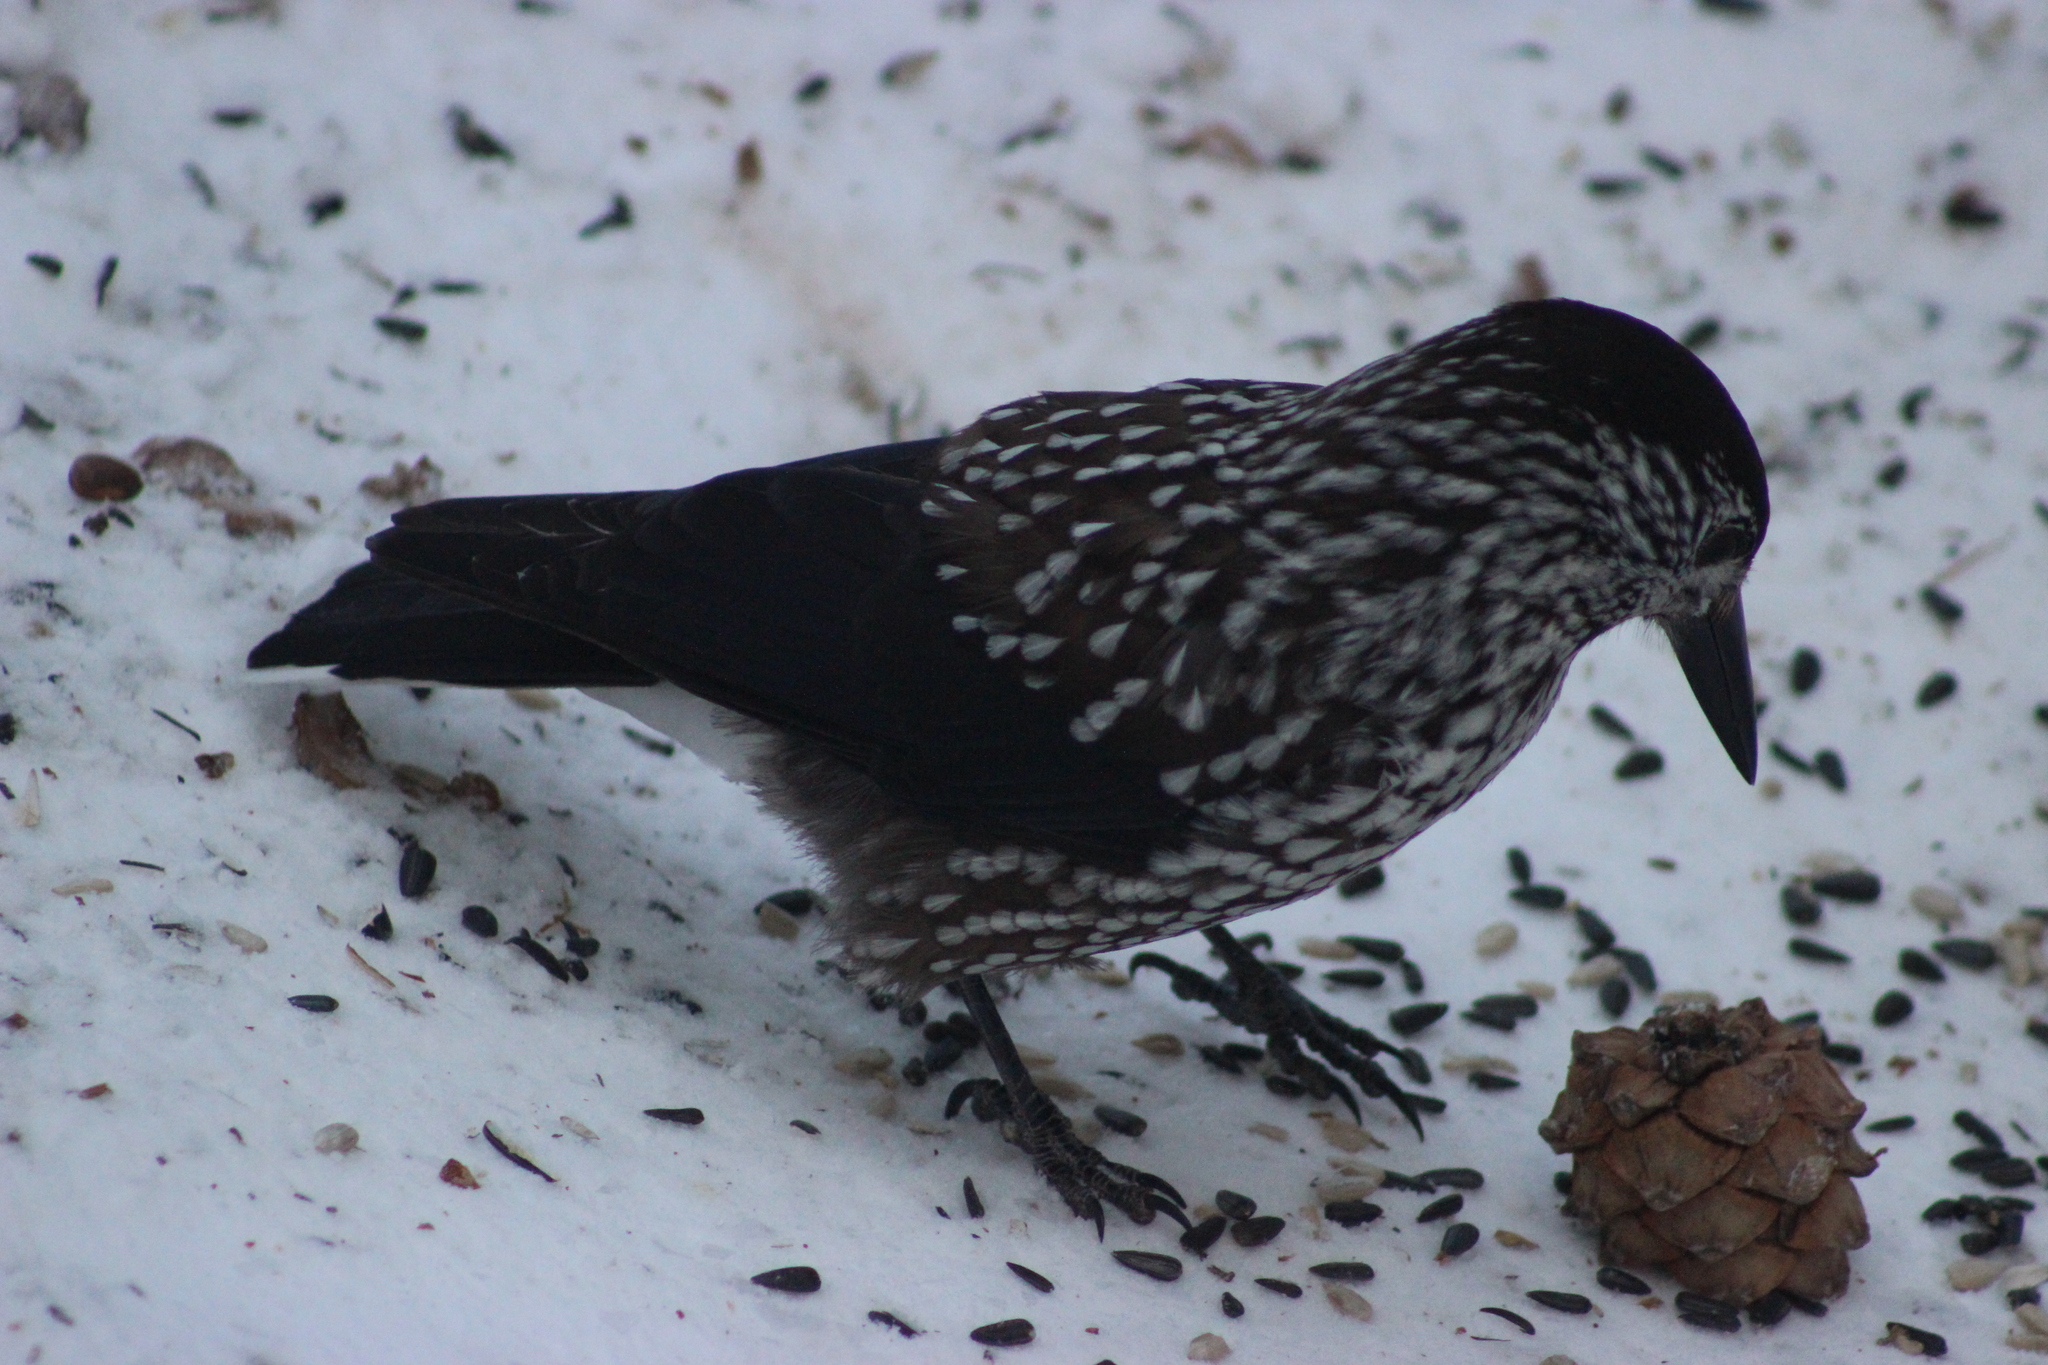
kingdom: Animalia
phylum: Chordata
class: Aves
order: Passeriformes
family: Corvidae
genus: Nucifraga
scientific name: Nucifraga caryocatactes
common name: Spotted nutcracker
